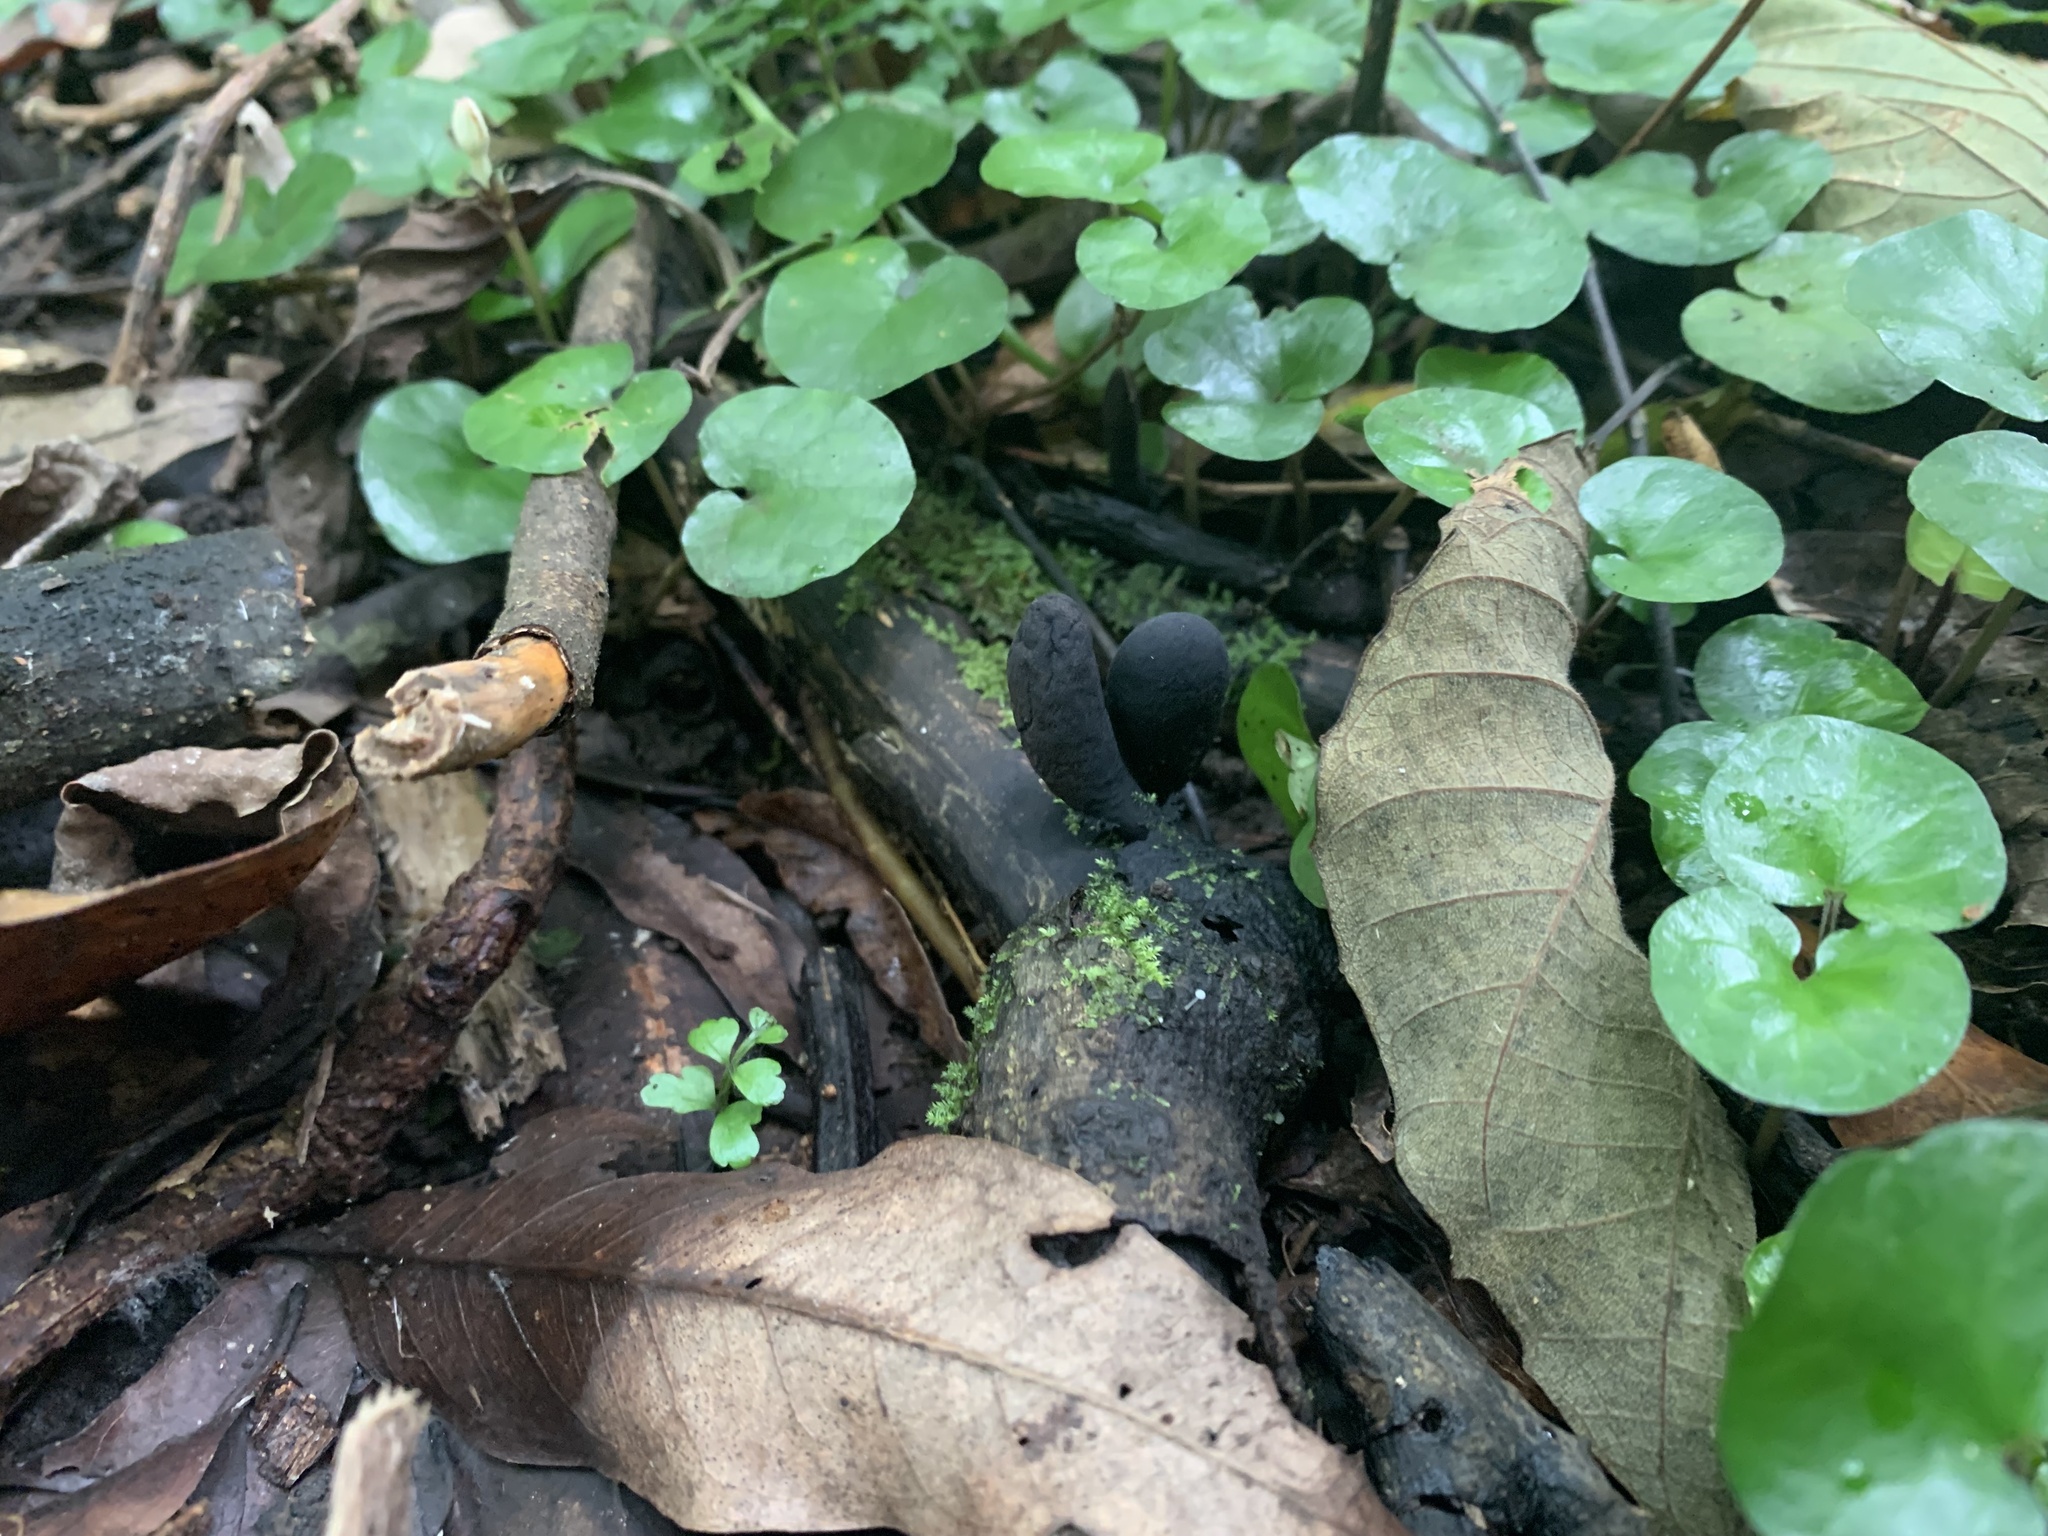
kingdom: Plantae
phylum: Tracheophyta
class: Magnoliopsida
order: Gentianales
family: Rubiaceae
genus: Geophila
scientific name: Geophila herbacea
